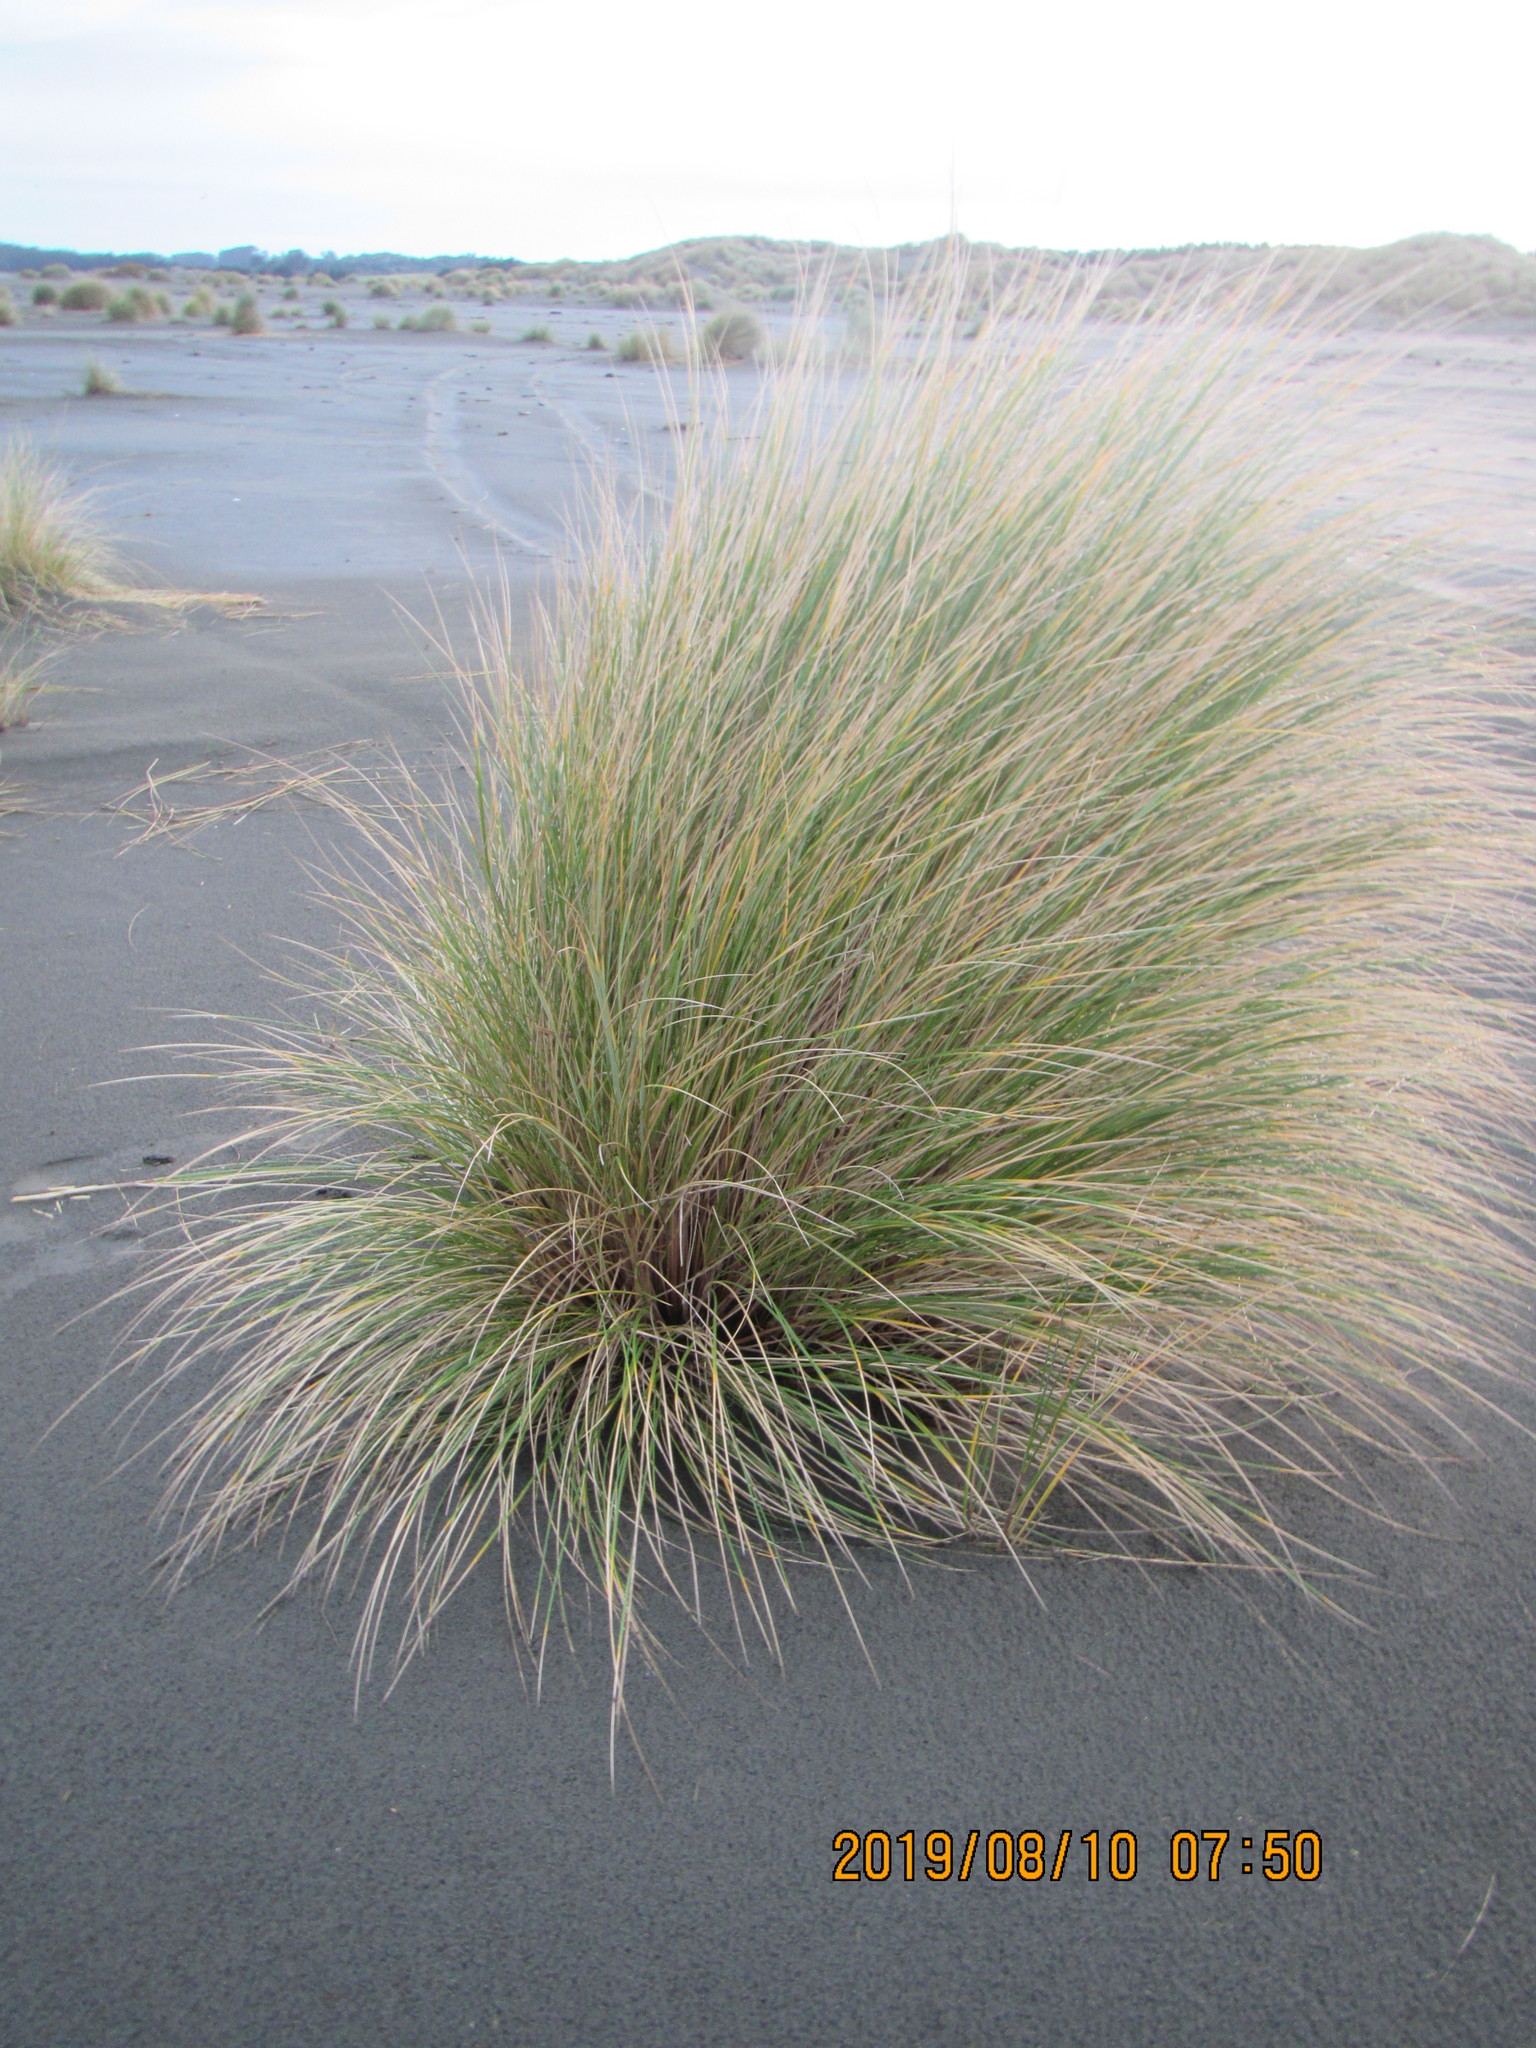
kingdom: Plantae
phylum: Tracheophyta
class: Liliopsida
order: Poales
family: Poaceae
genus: Calamagrostis
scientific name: Calamagrostis arenaria
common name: European beachgrass
